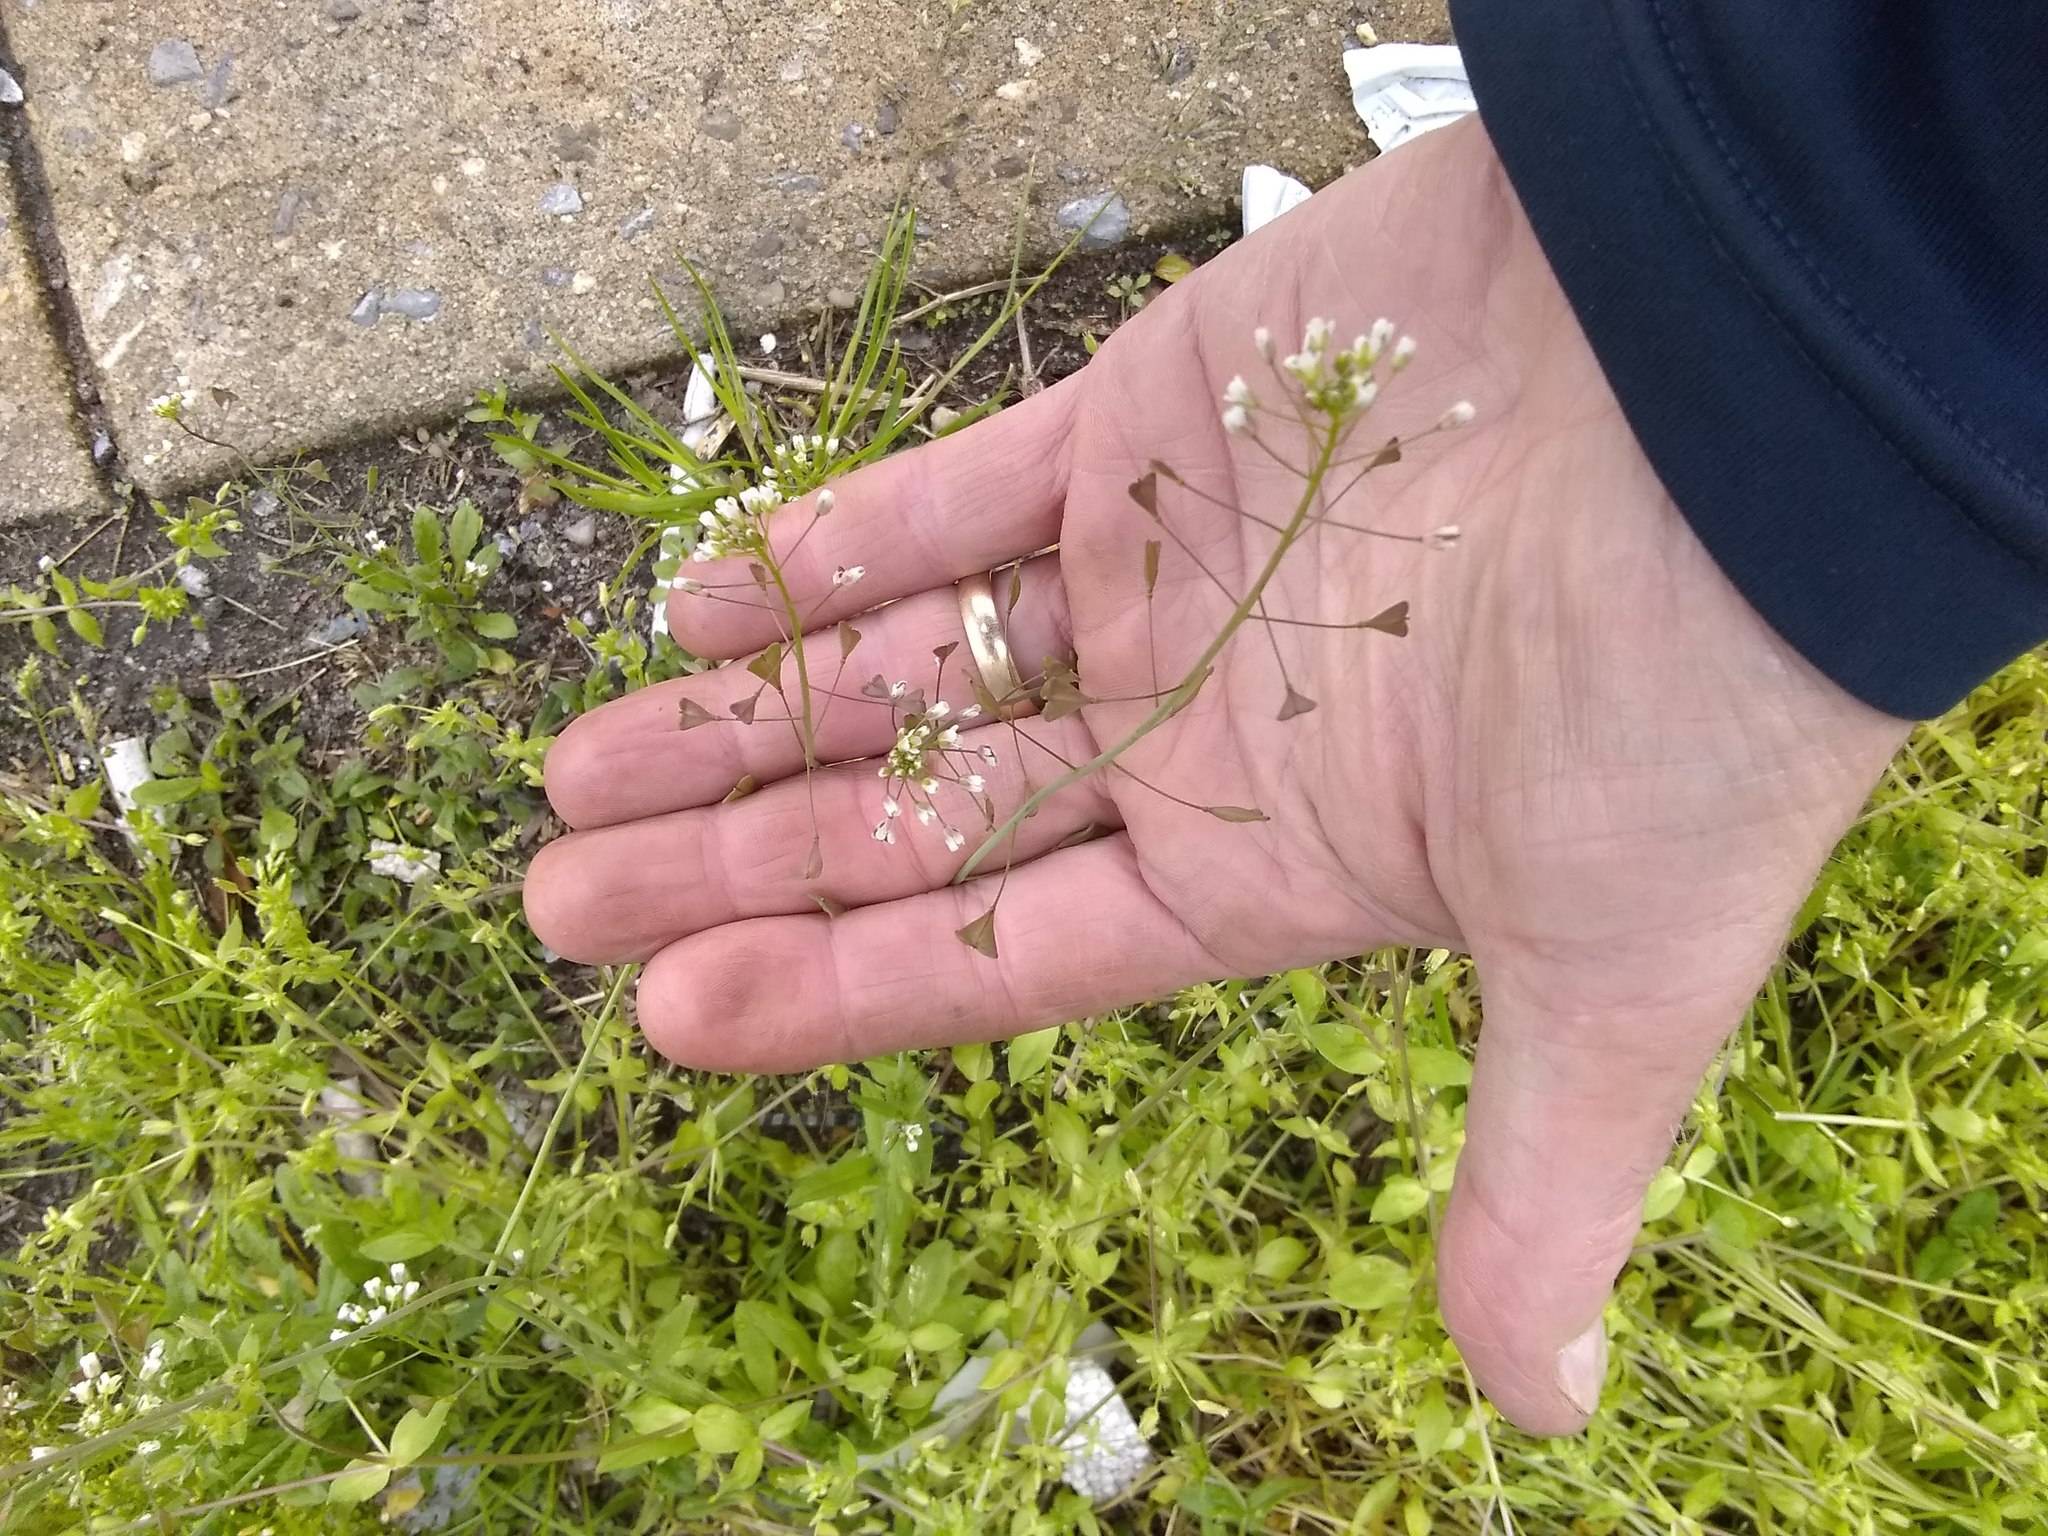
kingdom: Plantae
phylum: Tracheophyta
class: Magnoliopsida
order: Brassicales
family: Brassicaceae
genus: Capsella
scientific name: Capsella bursa-pastoris
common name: Shepherd's purse
